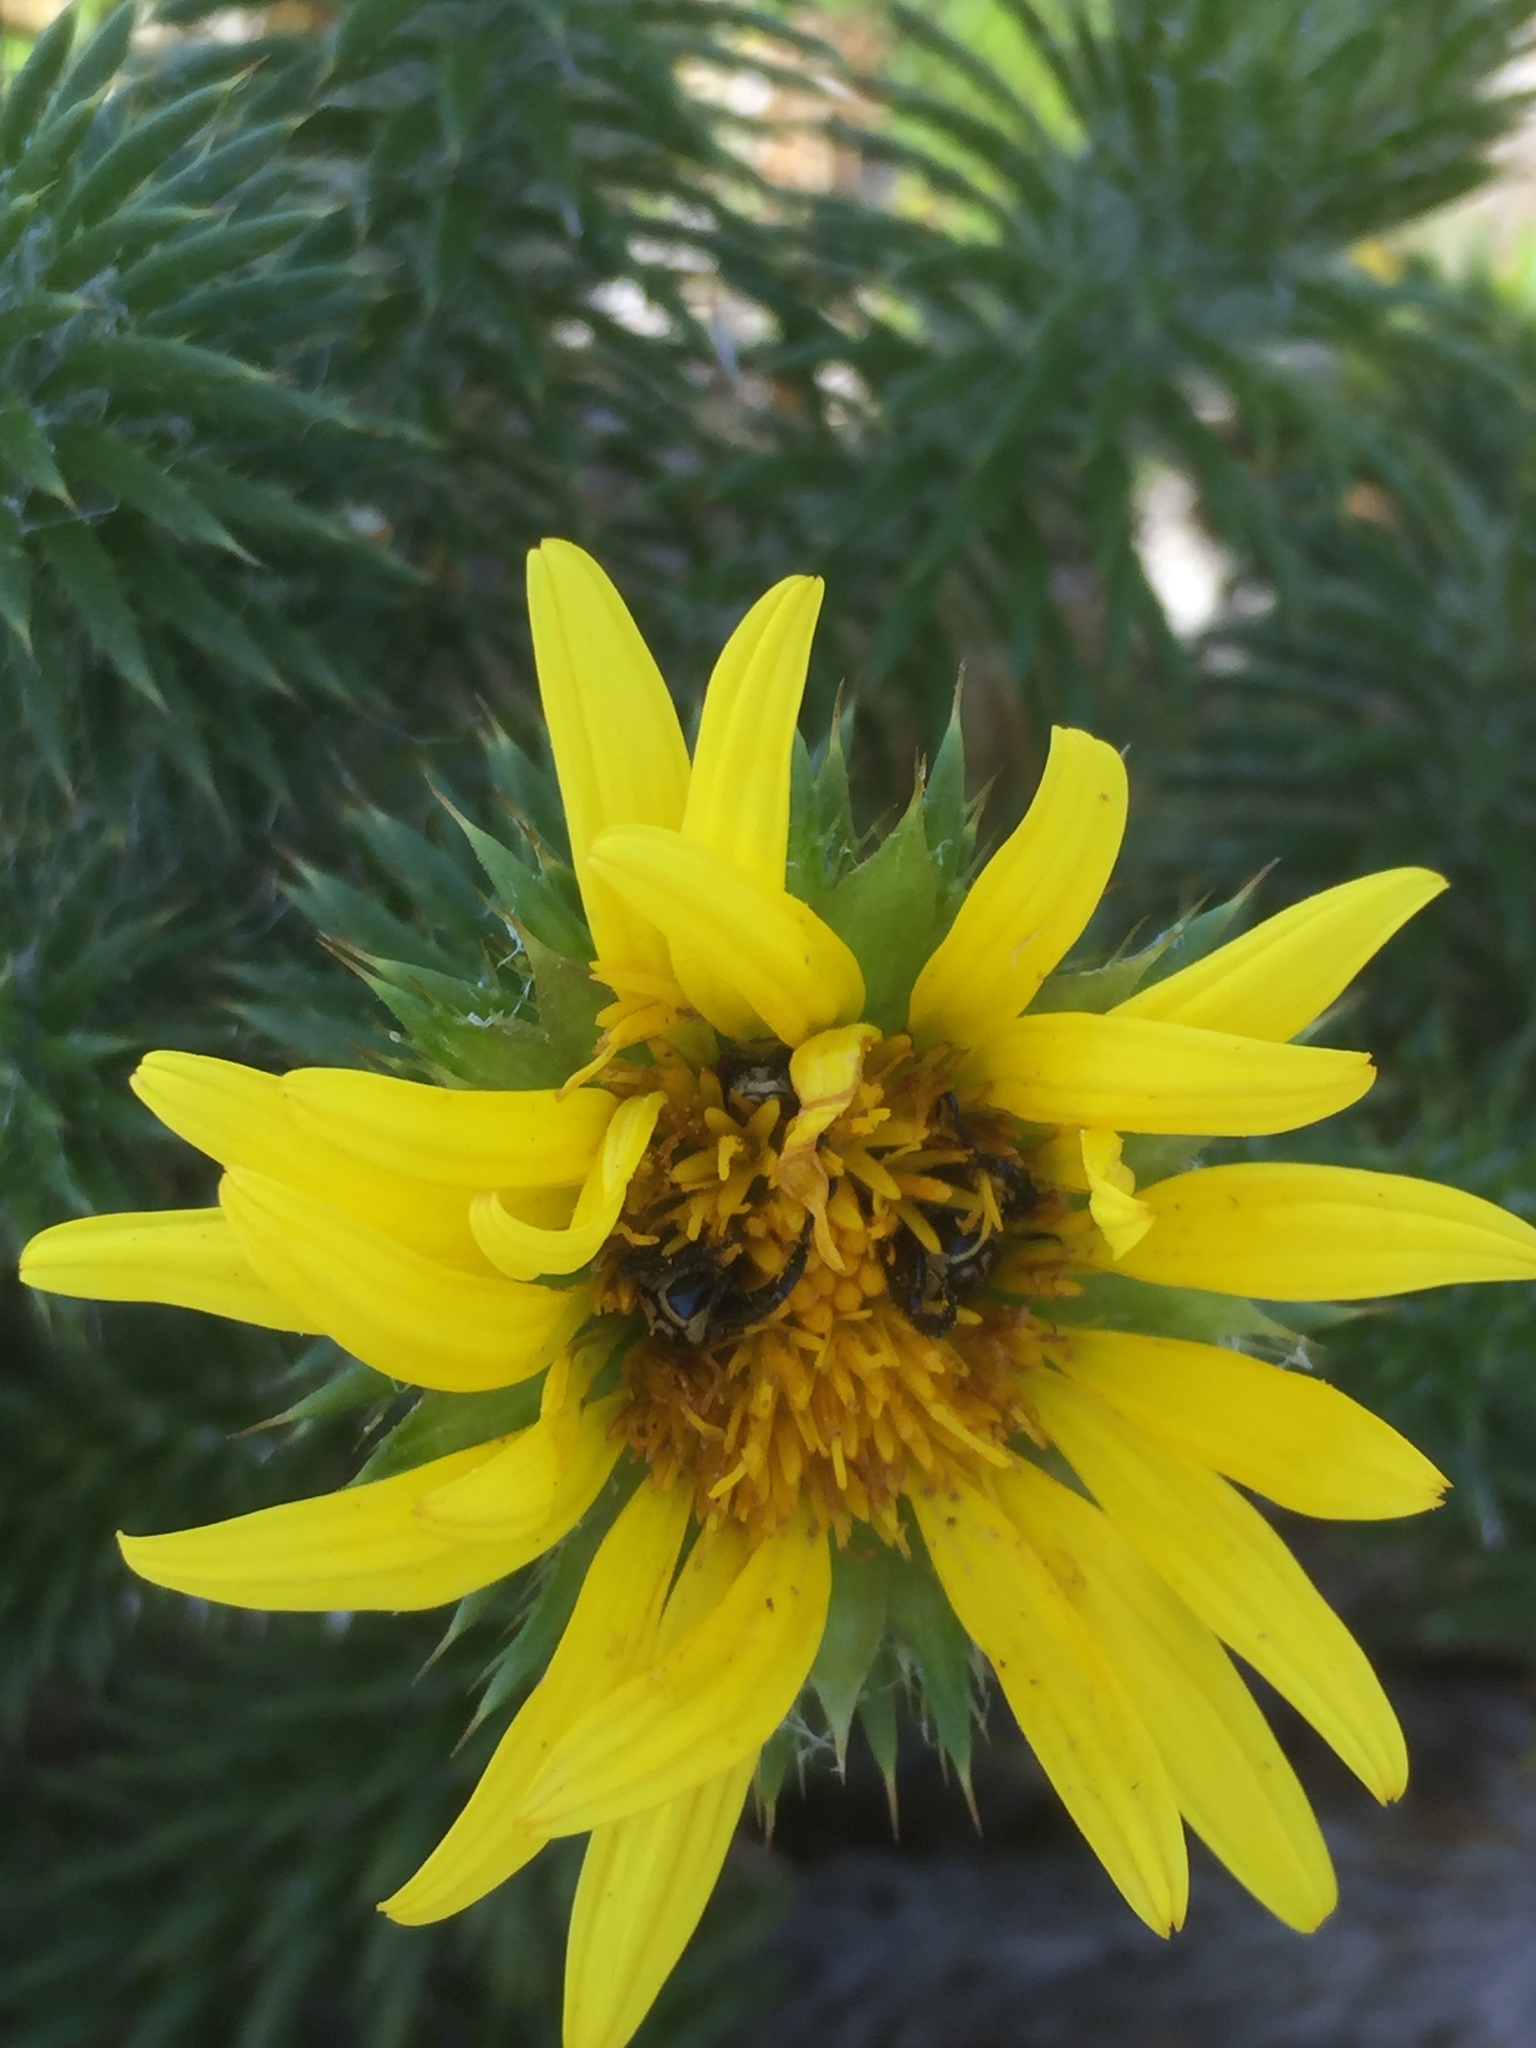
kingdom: Plantae
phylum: Tracheophyta
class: Magnoliopsida
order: Asterales
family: Asteraceae
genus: Cullumia
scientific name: Cullumia squarrosa
